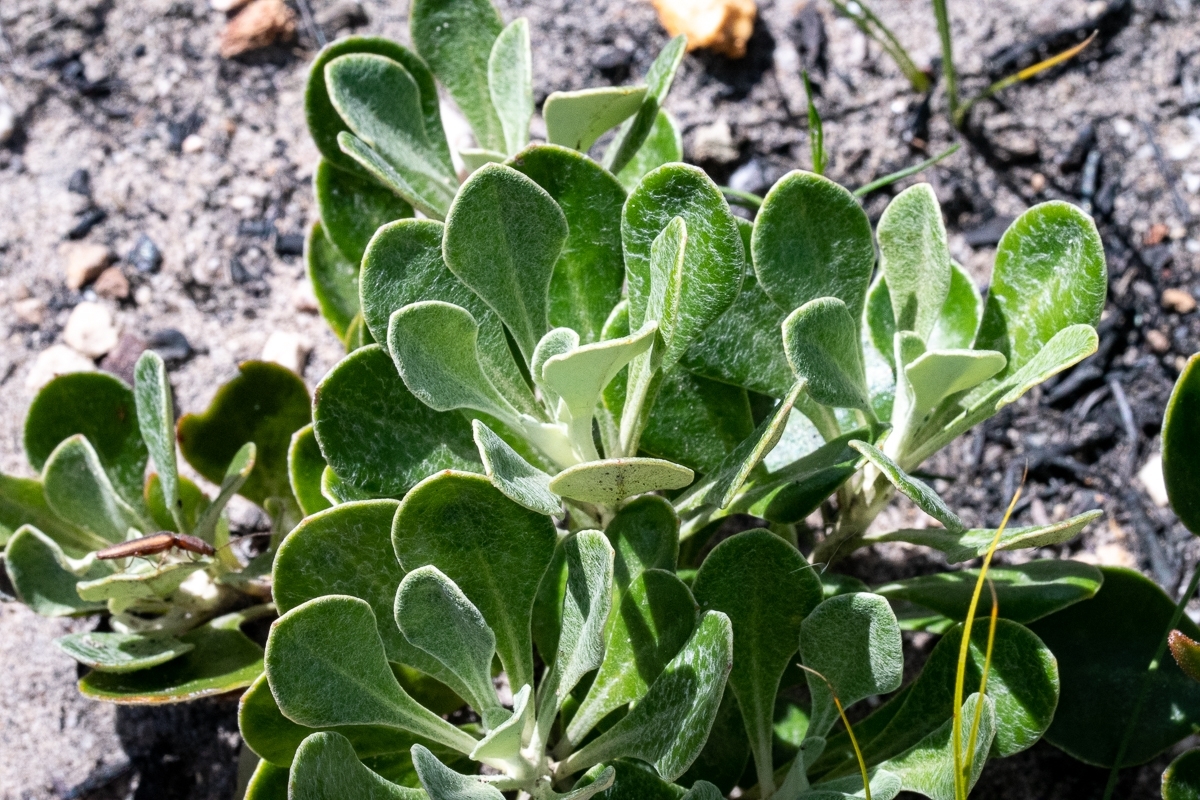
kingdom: Plantae
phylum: Tracheophyta
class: Magnoliopsida
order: Asterales
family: Asteraceae
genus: Osteospermum
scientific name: Osteospermum tomentosum
